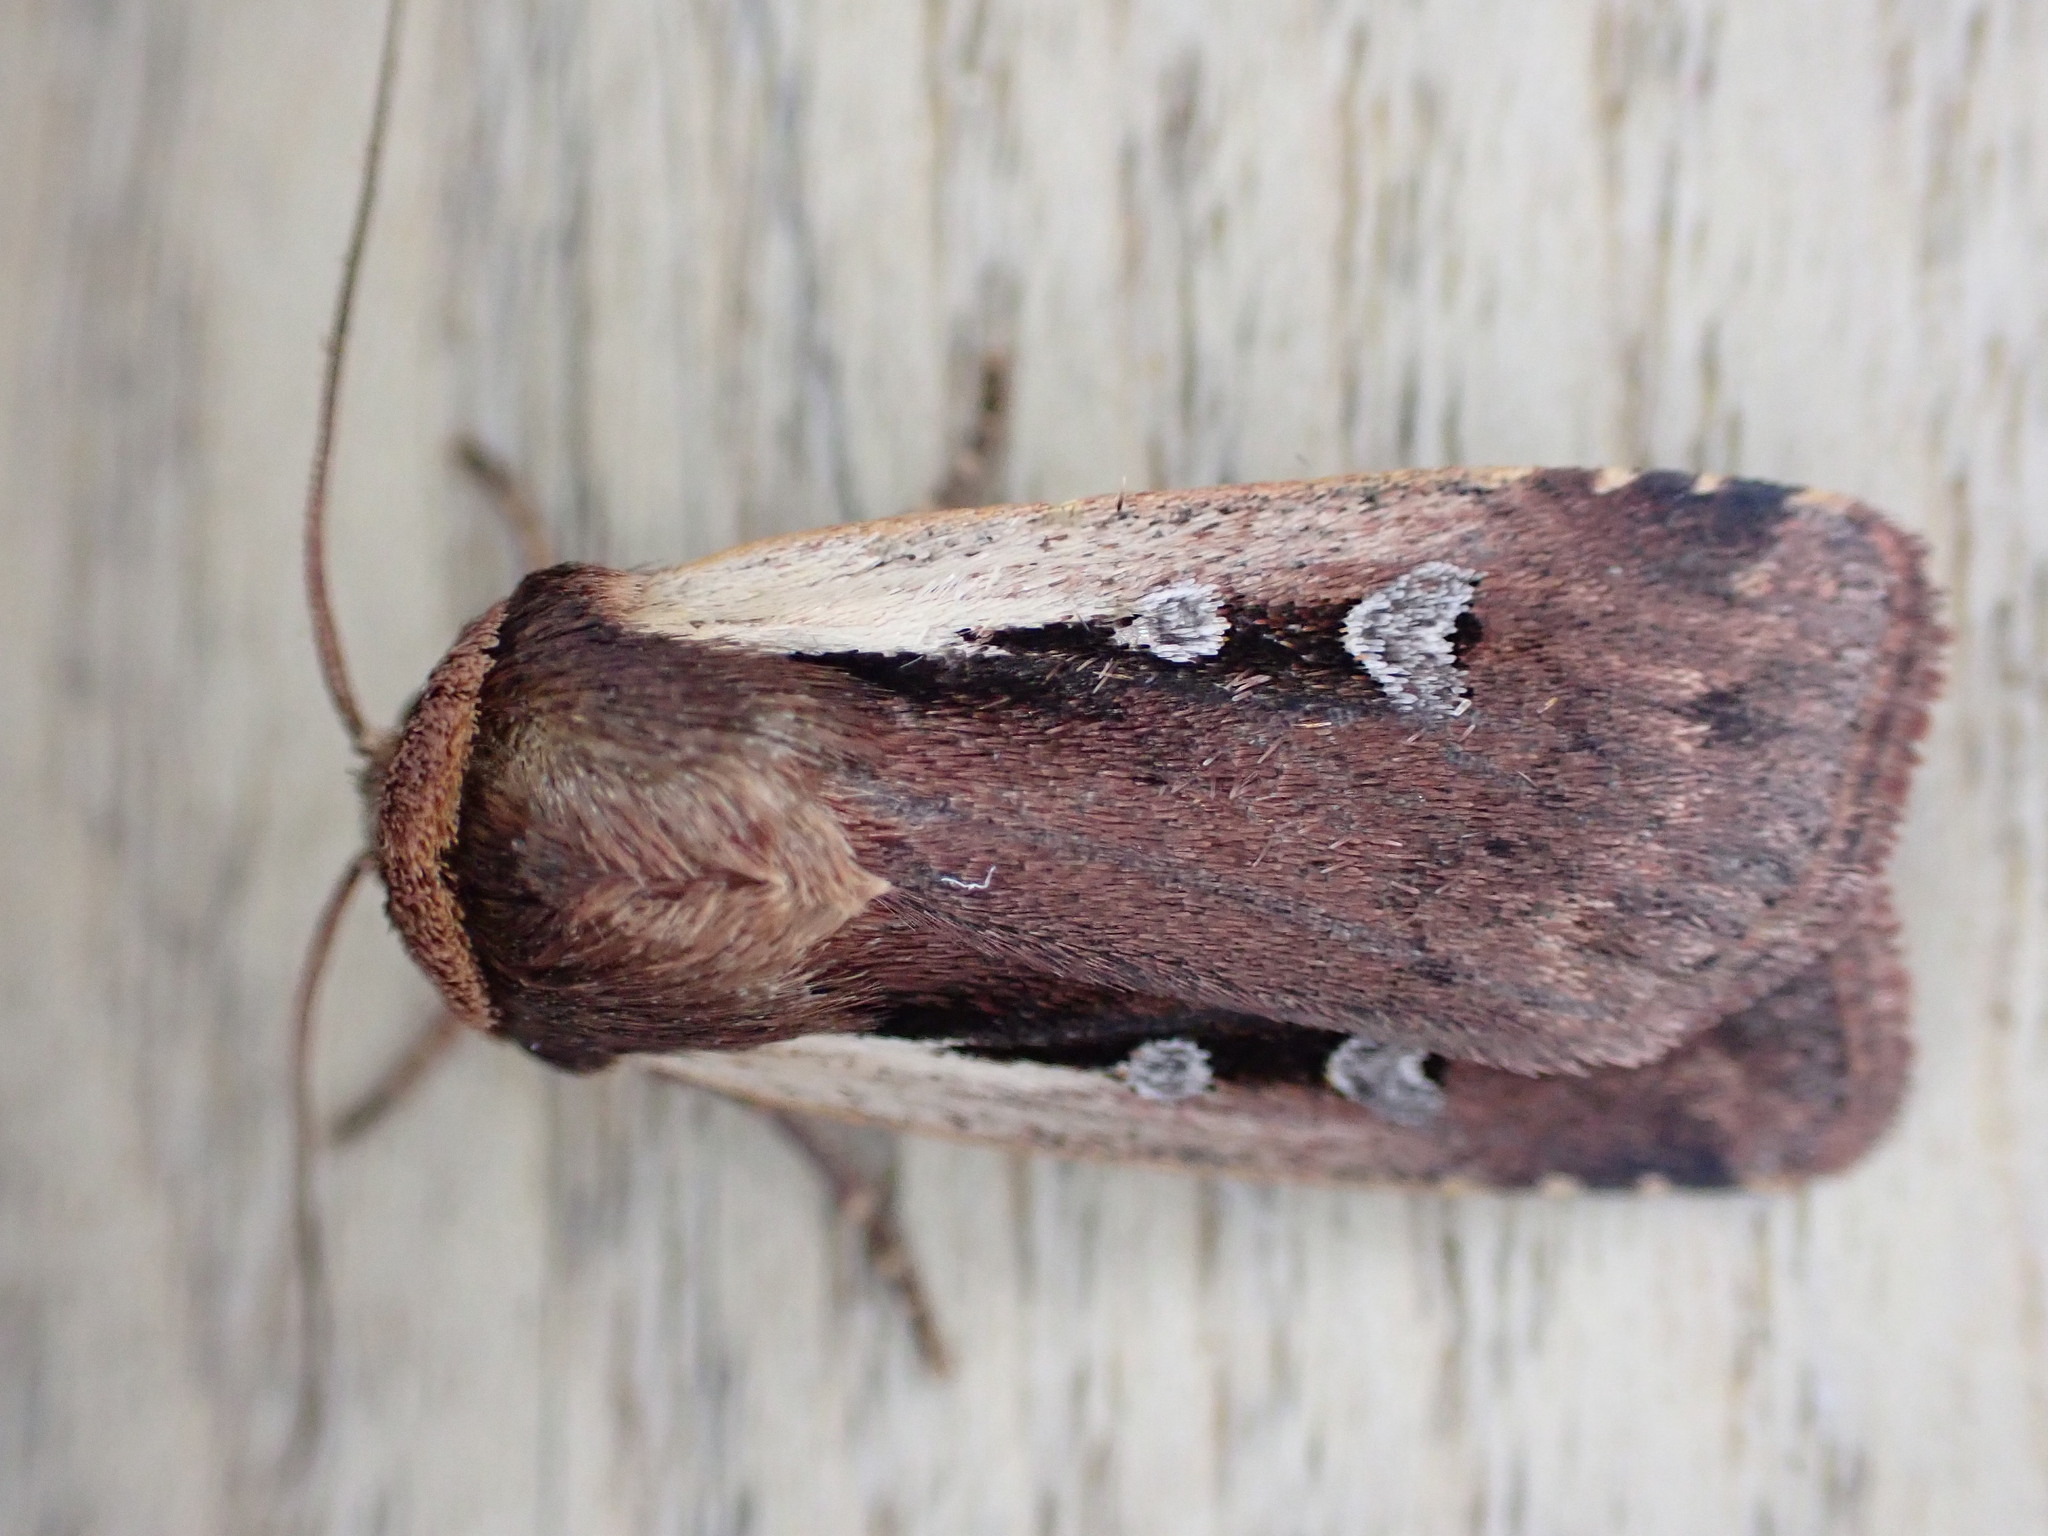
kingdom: Animalia
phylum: Arthropoda
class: Insecta
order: Lepidoptera
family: Noctuidae
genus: Ochropleura
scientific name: Ochropleura plecta
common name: Flame shoulder
